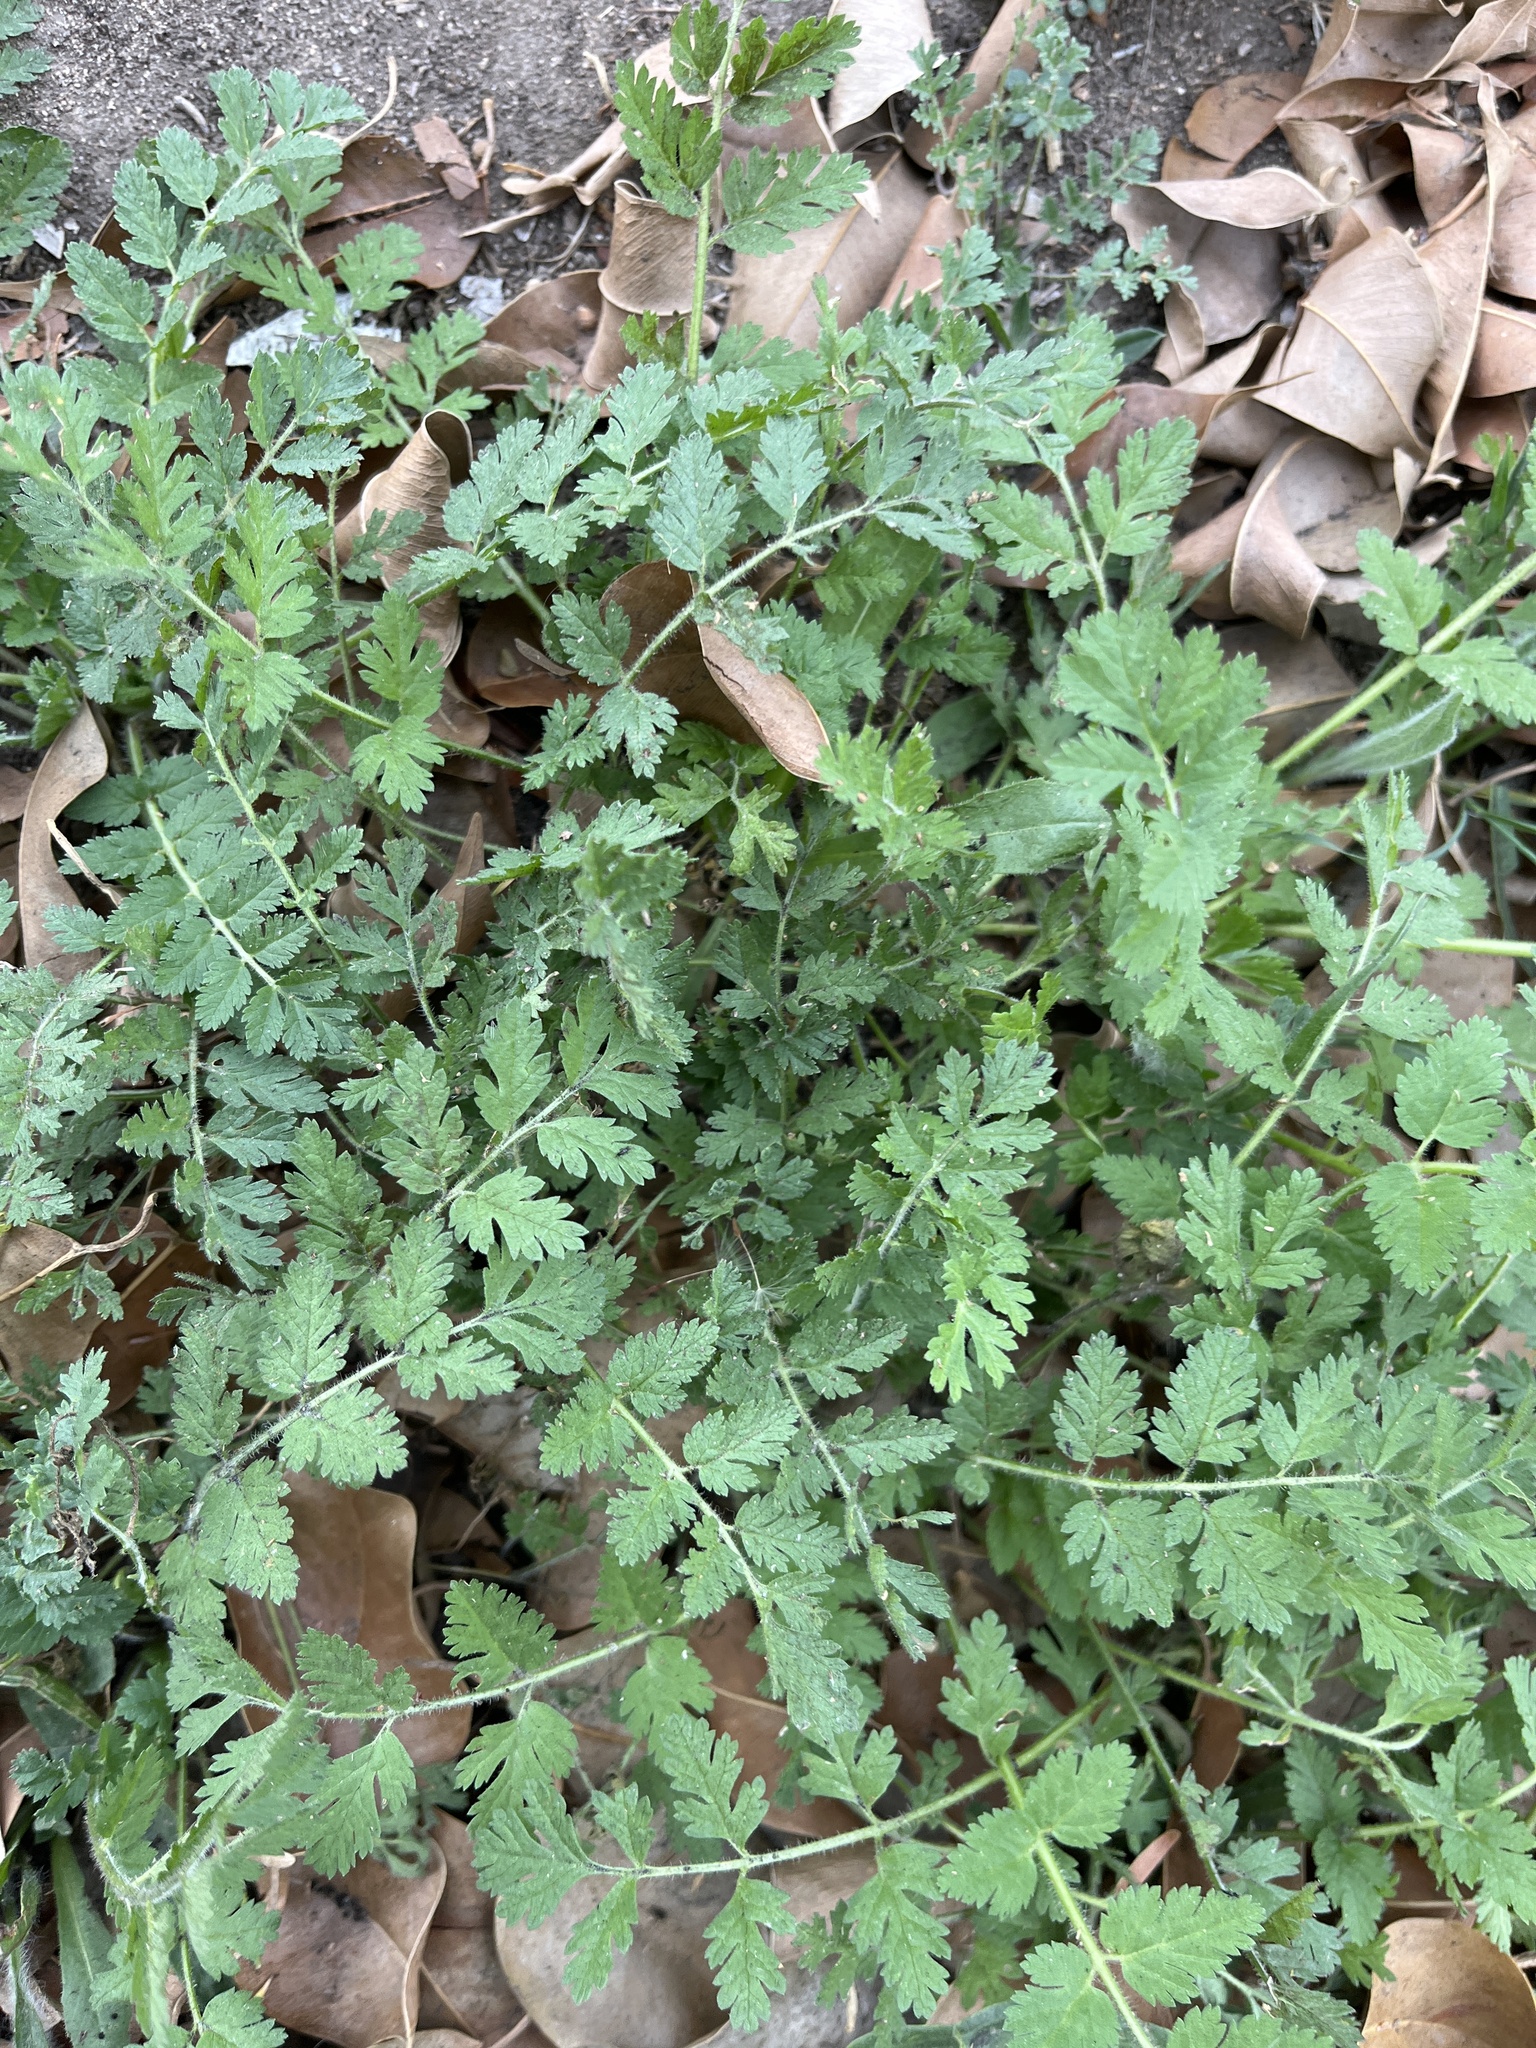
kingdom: Plantae
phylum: Tracheophyta
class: Magnoliopsida
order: Geraniales
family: Geraniaceae
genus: Erodium
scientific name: Erodium moschatum
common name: Musk stork's-bill
